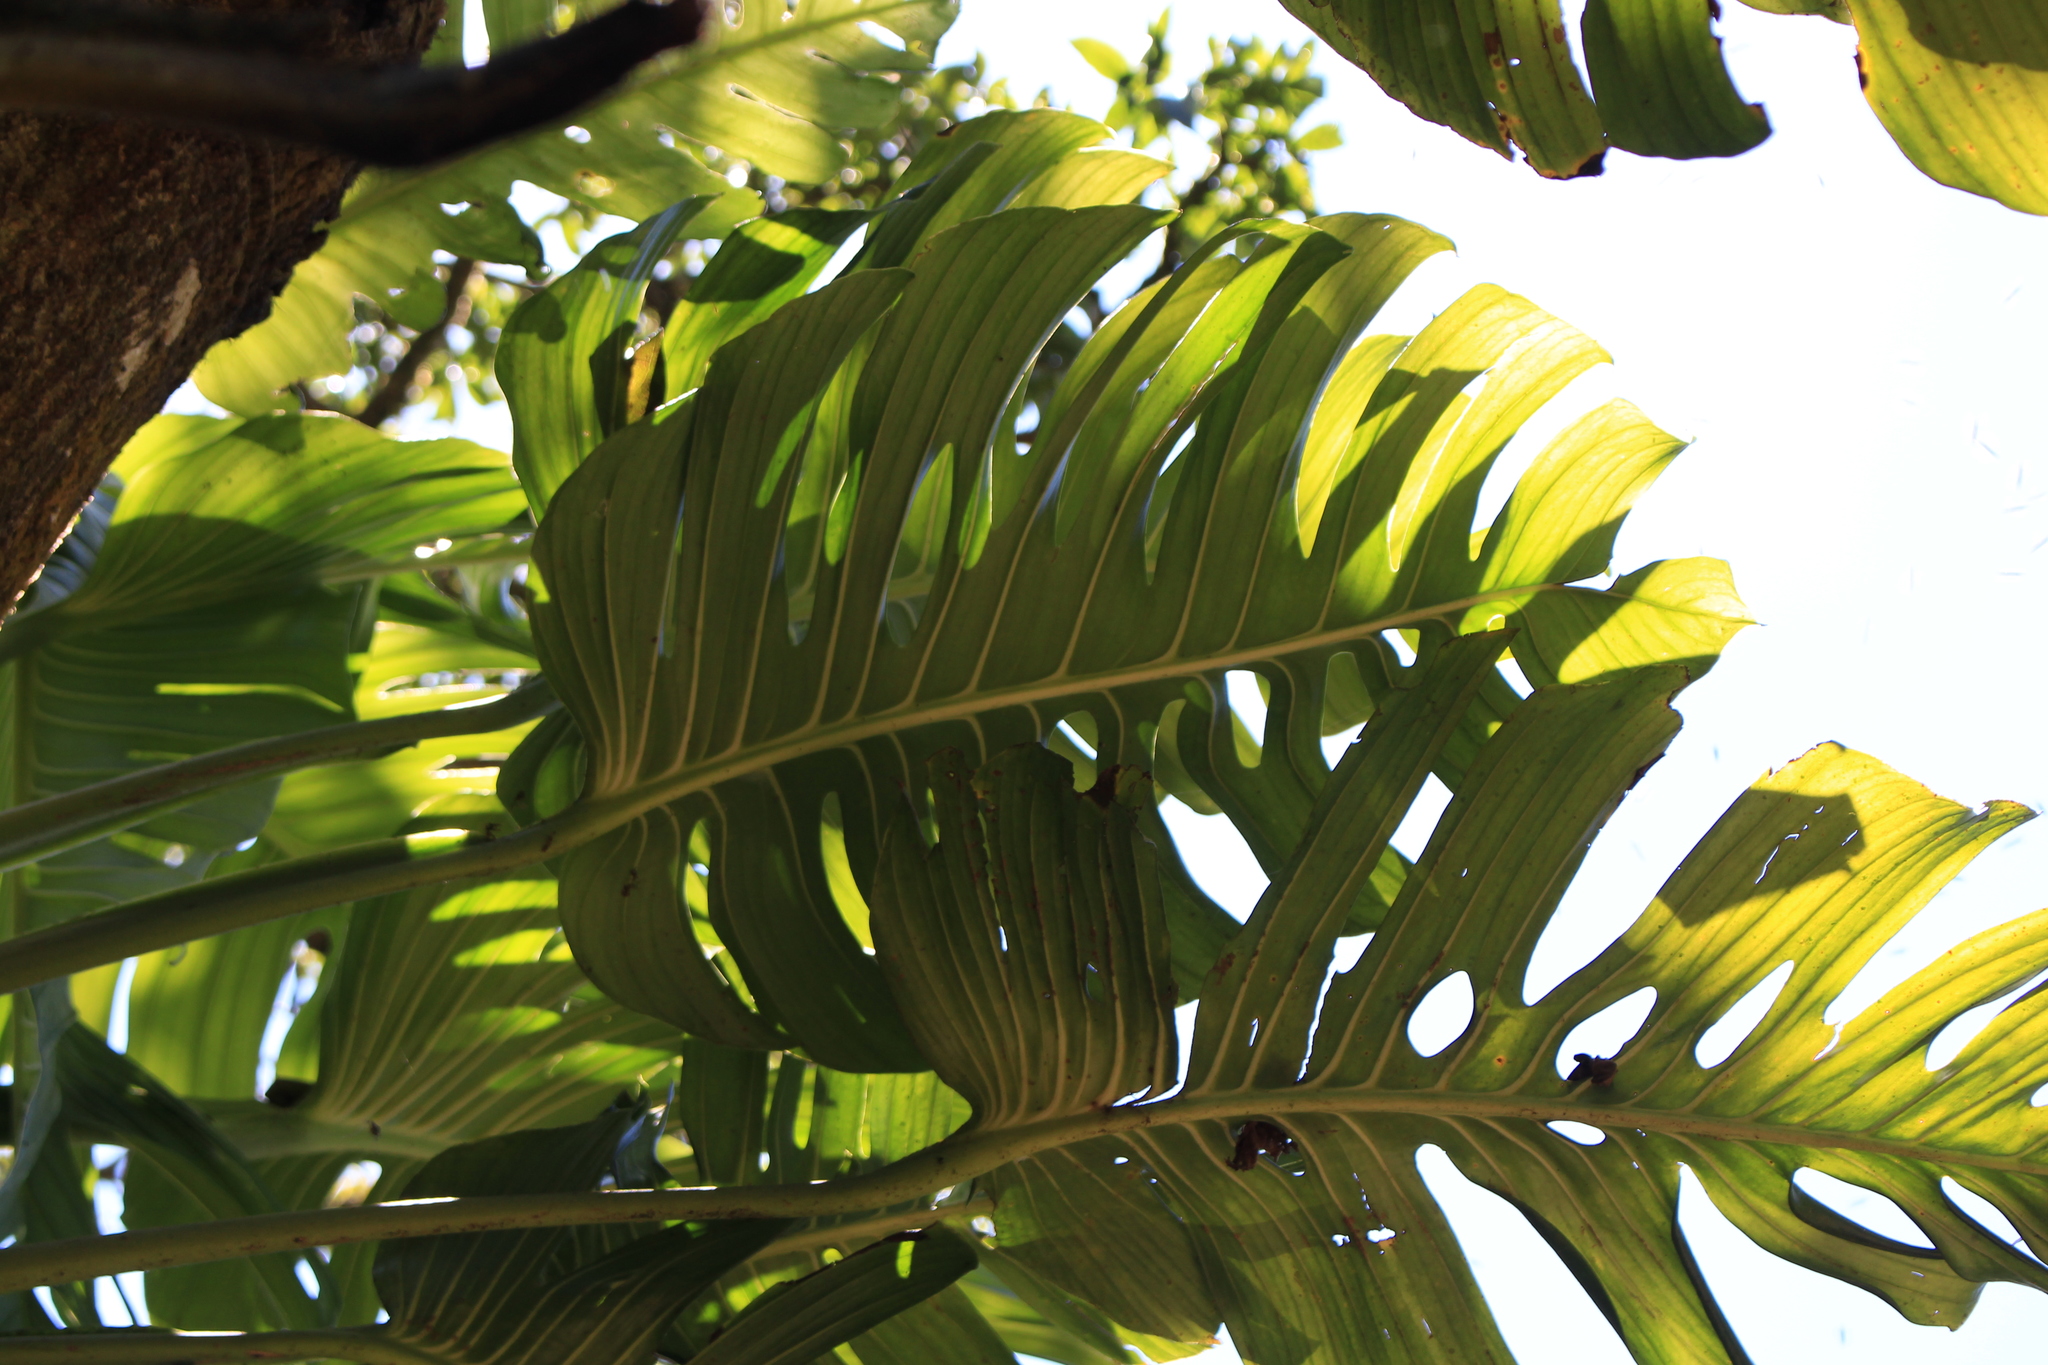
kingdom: Plantae
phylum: Tracheophyta
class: Liliopsida
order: Alismatales
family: Araceae
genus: Monstera
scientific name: Monstera lentii
